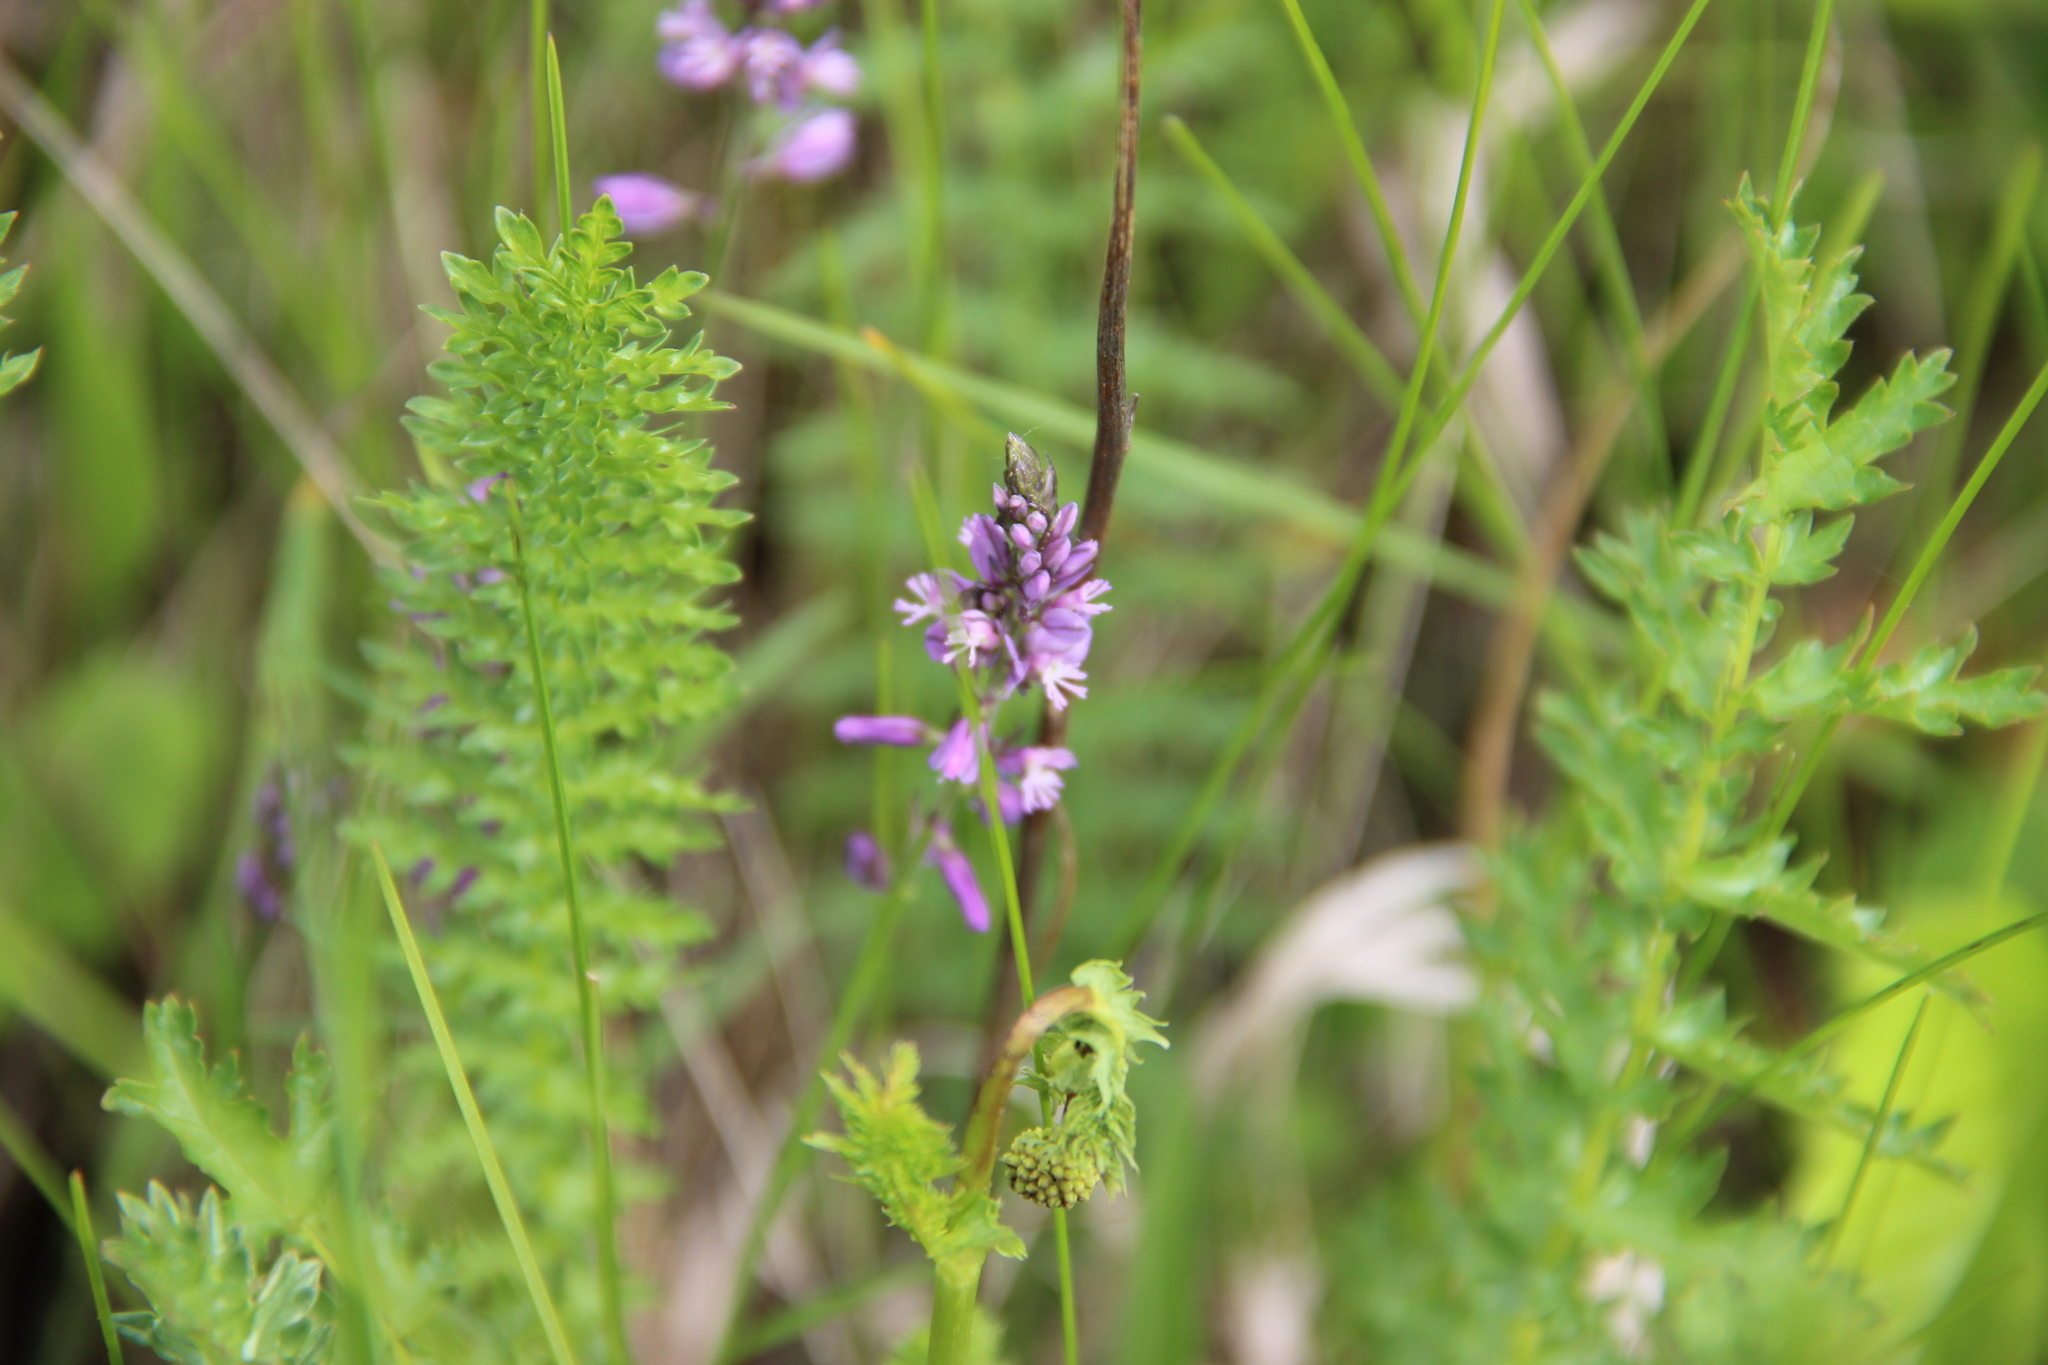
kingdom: Plantae
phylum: Tracheophyta
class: Magnoliopsida
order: Fabales
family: Polygalaceae
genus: Polygala
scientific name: Polygala comosa
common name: Tufted milkwort
